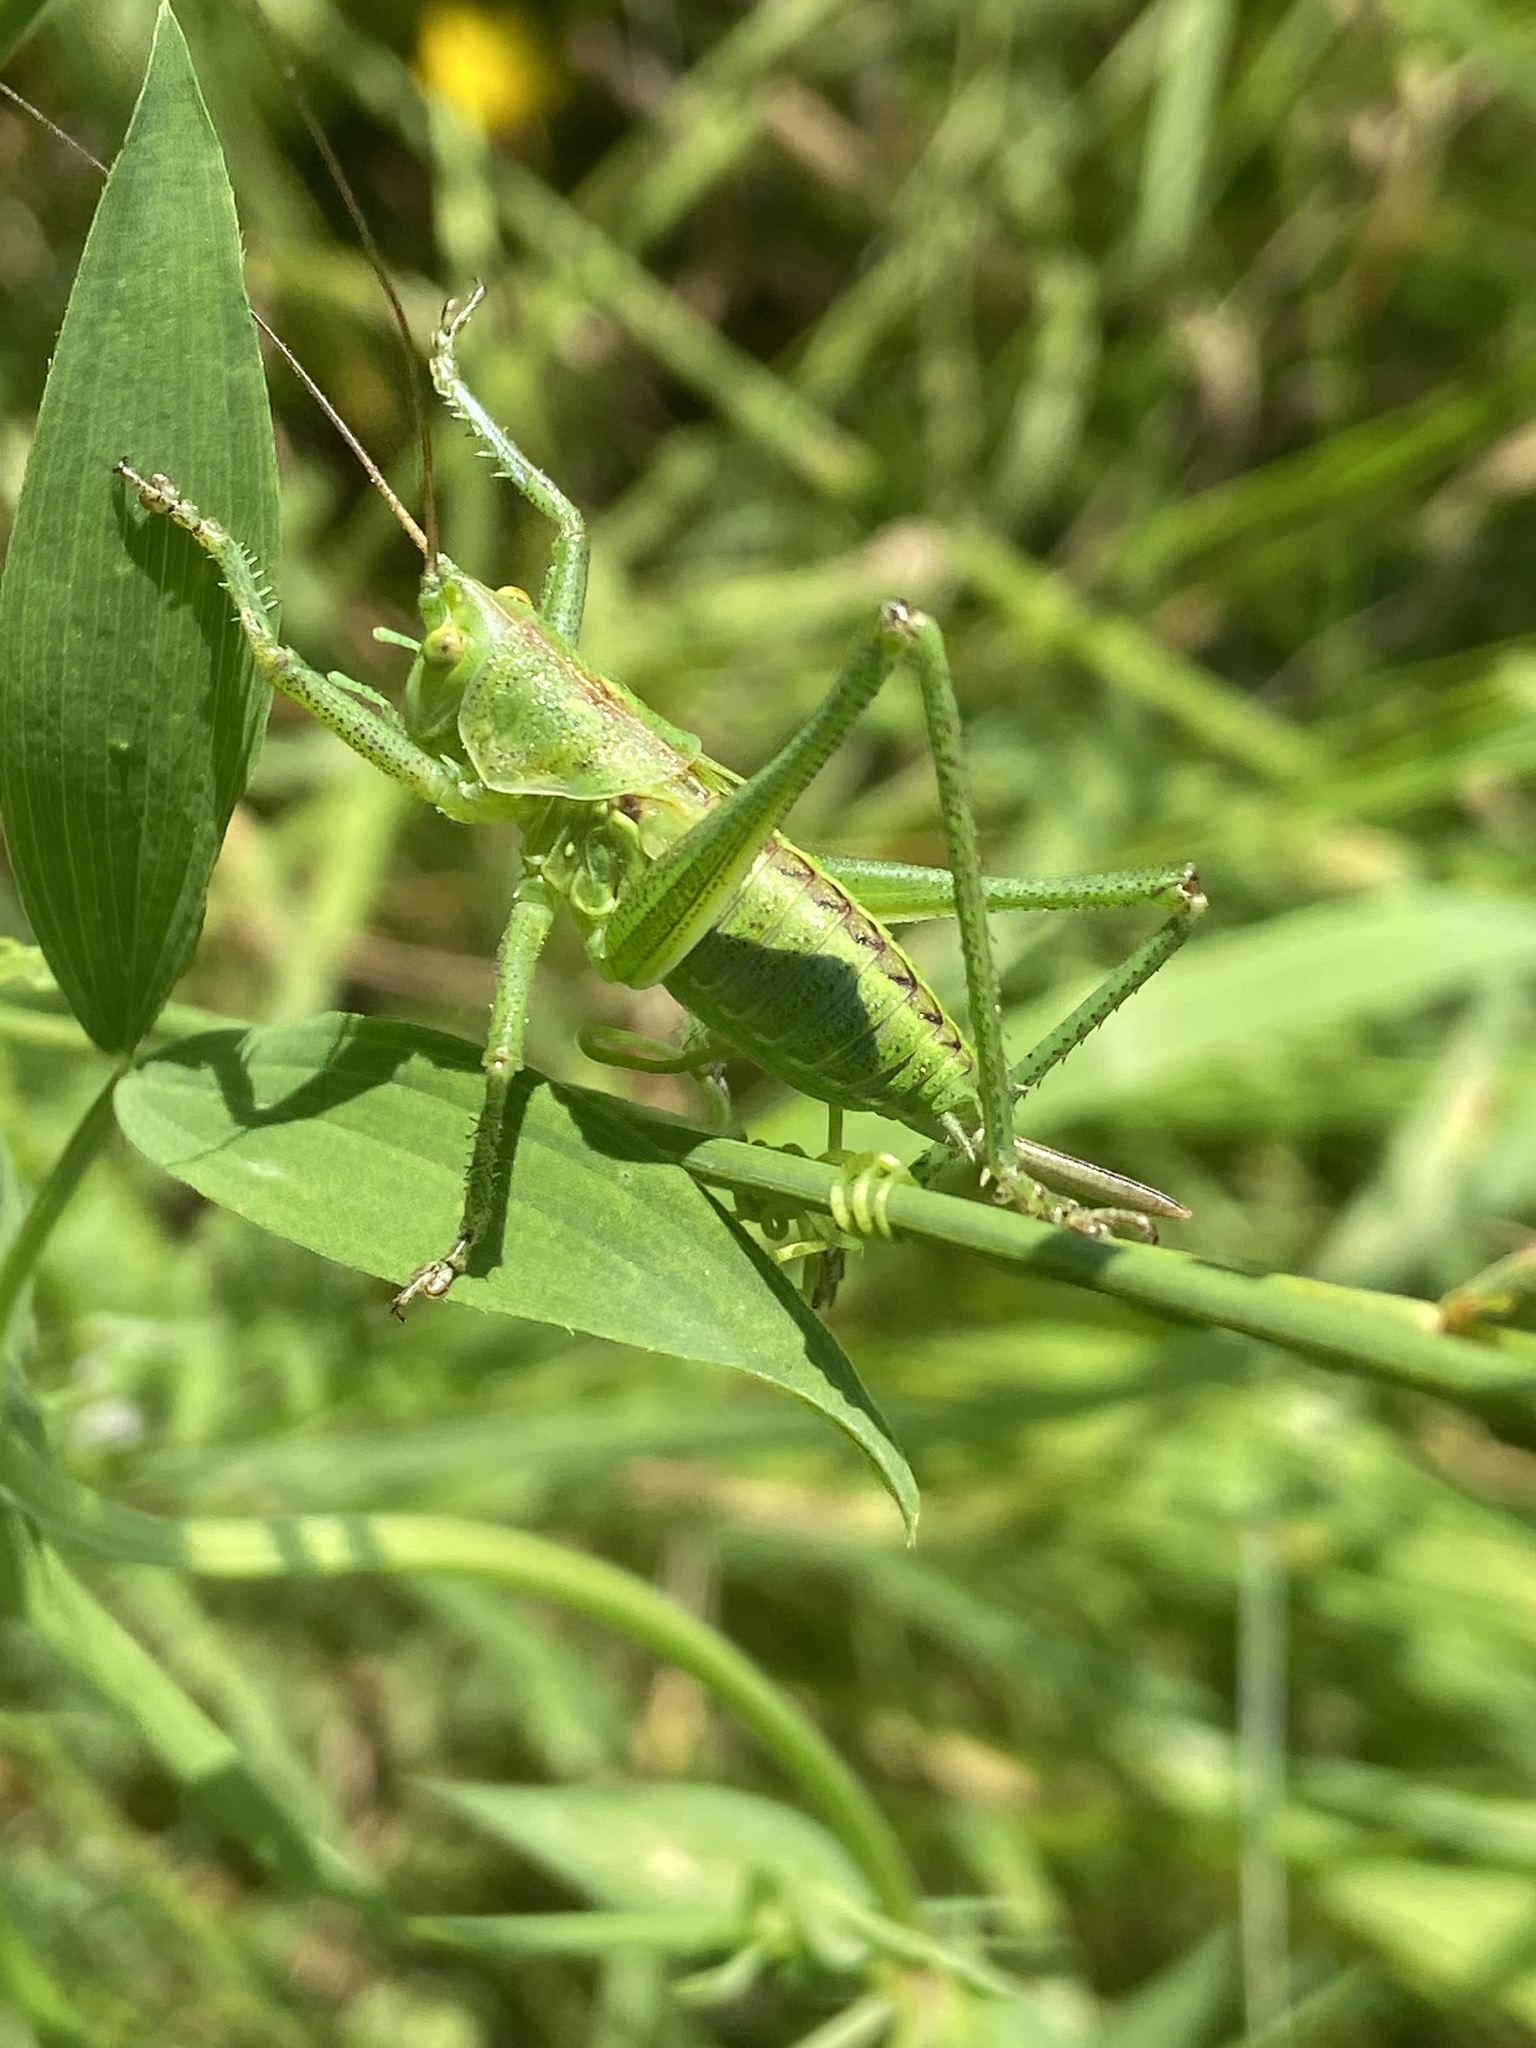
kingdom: Animalia
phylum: Arthropoda
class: Insecta
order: Orthoptera
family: Tettigoniidae
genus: Tettigonia
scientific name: Tettigonia viridissima
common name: Great green bush-cricket
